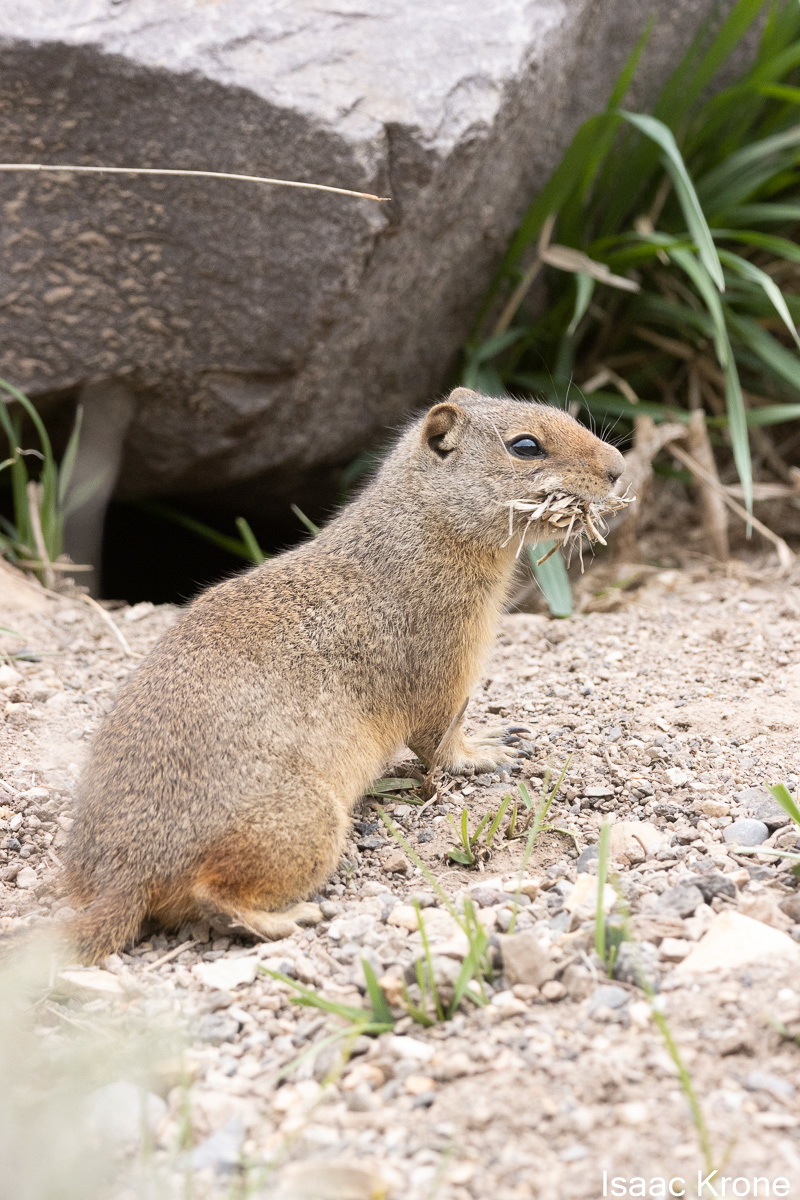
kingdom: Animalia
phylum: Chordata
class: Mammalia
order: Rodentia
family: Sciuridae
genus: Urocitellus
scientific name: Urocitellus armatus
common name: Uinta ground squirrel
